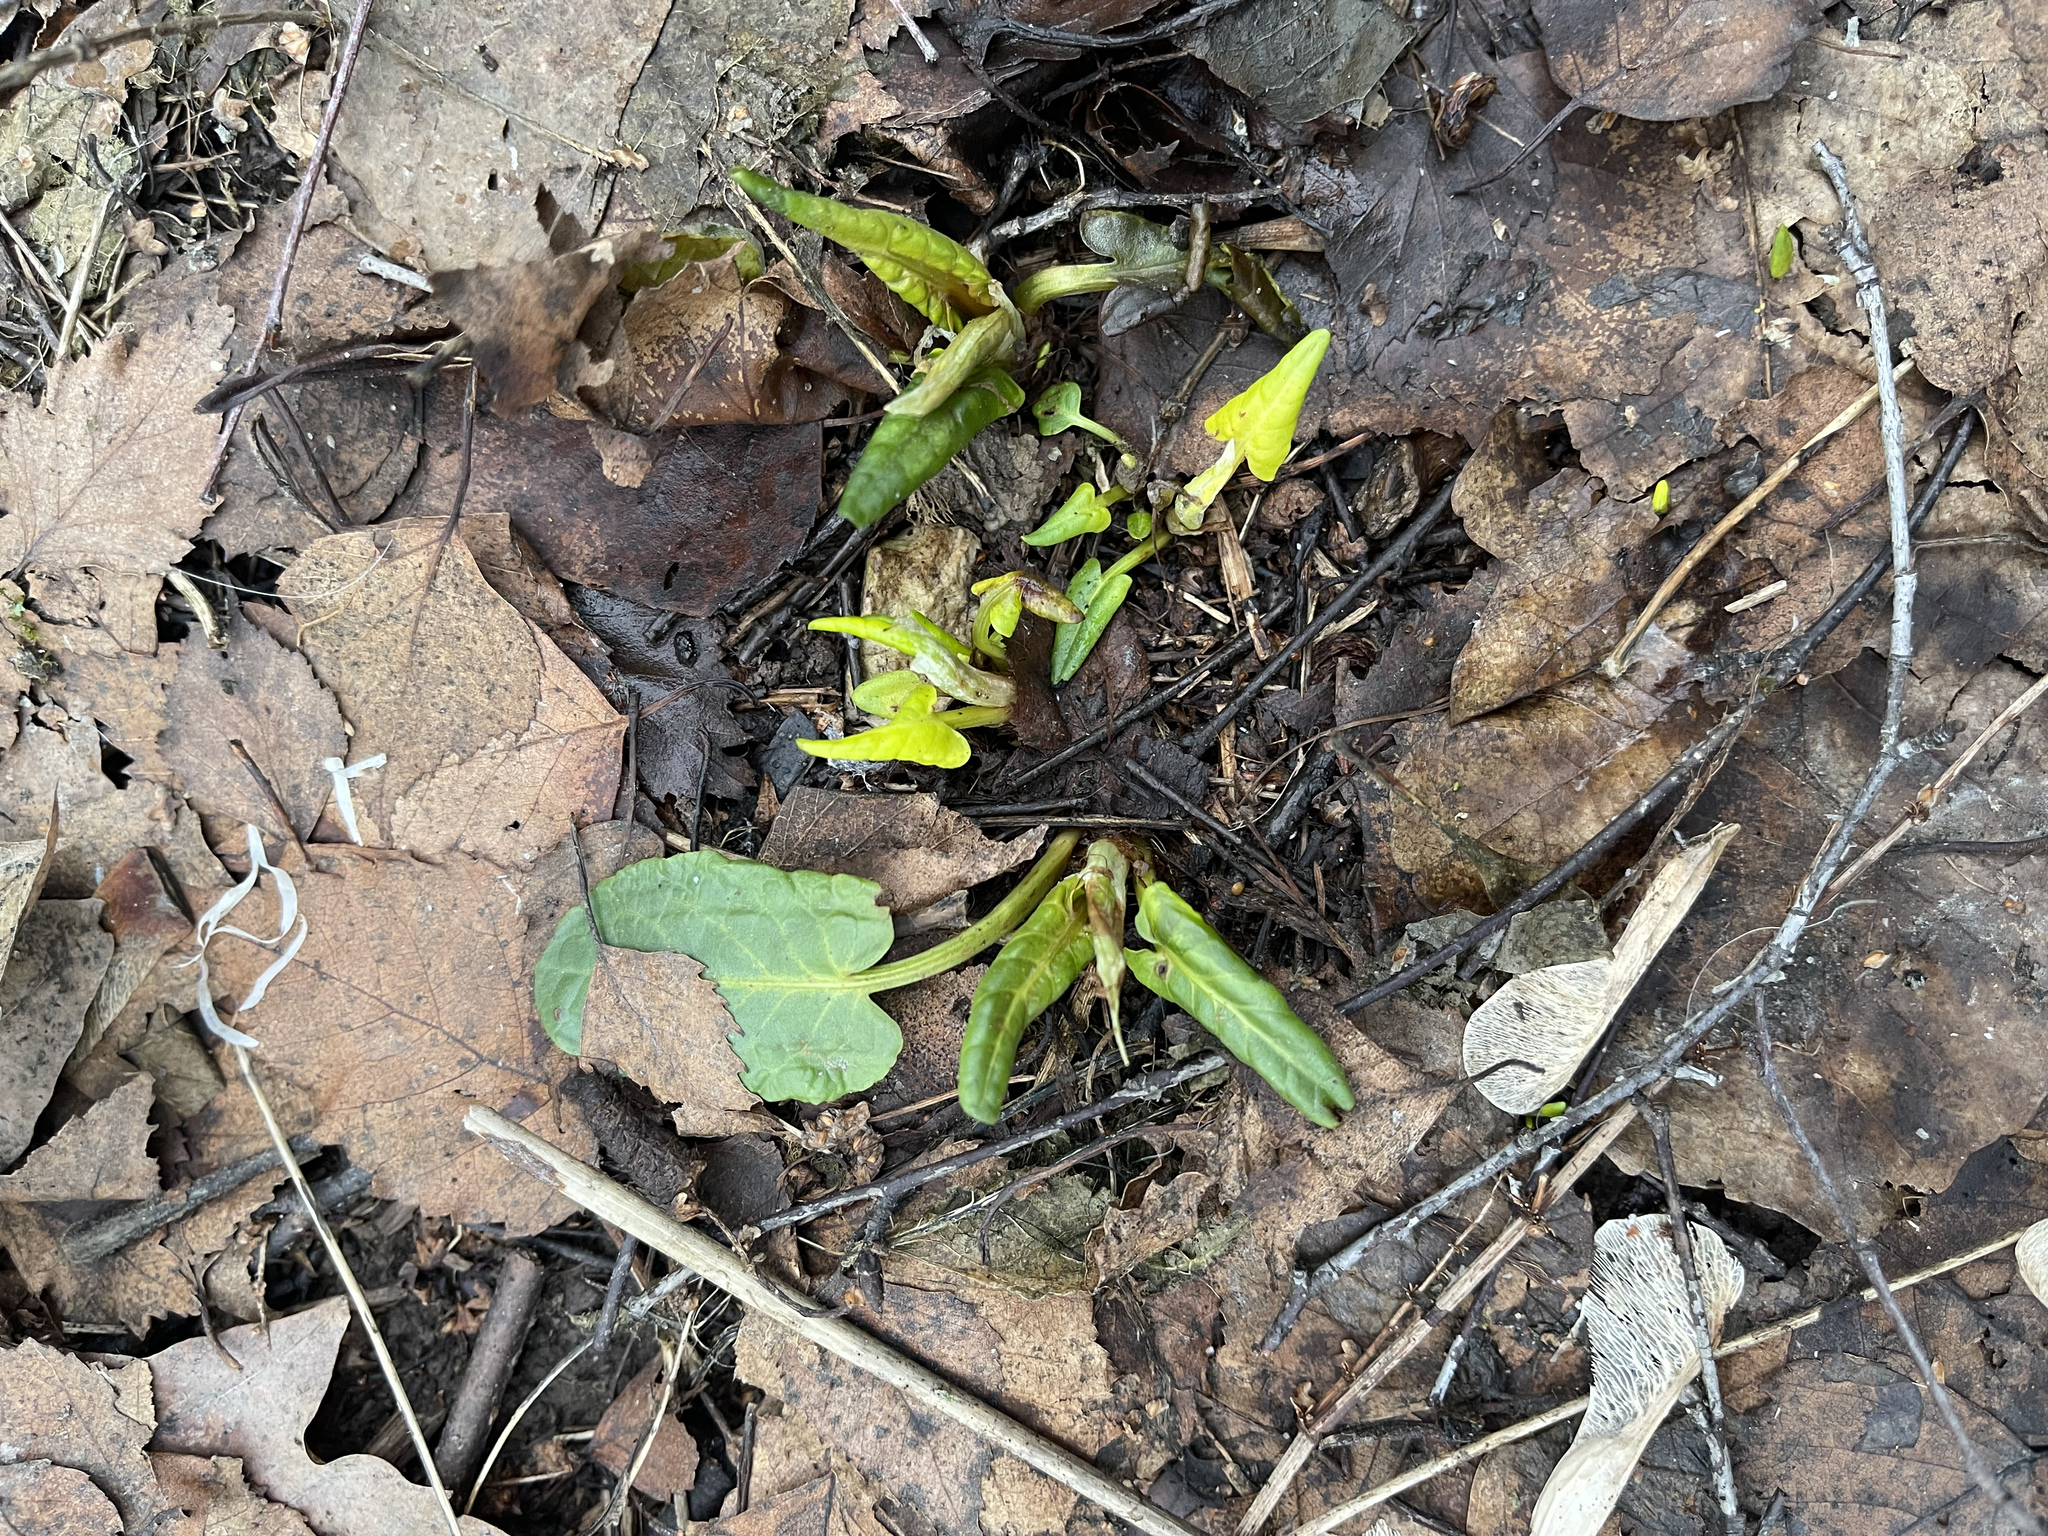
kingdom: Plantae
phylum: Tracheophyta
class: Magnoliopsida
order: Caryophyllales
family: Polygonaceae
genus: Rumex
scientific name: Rumex obtusifolius
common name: Bitter dock
